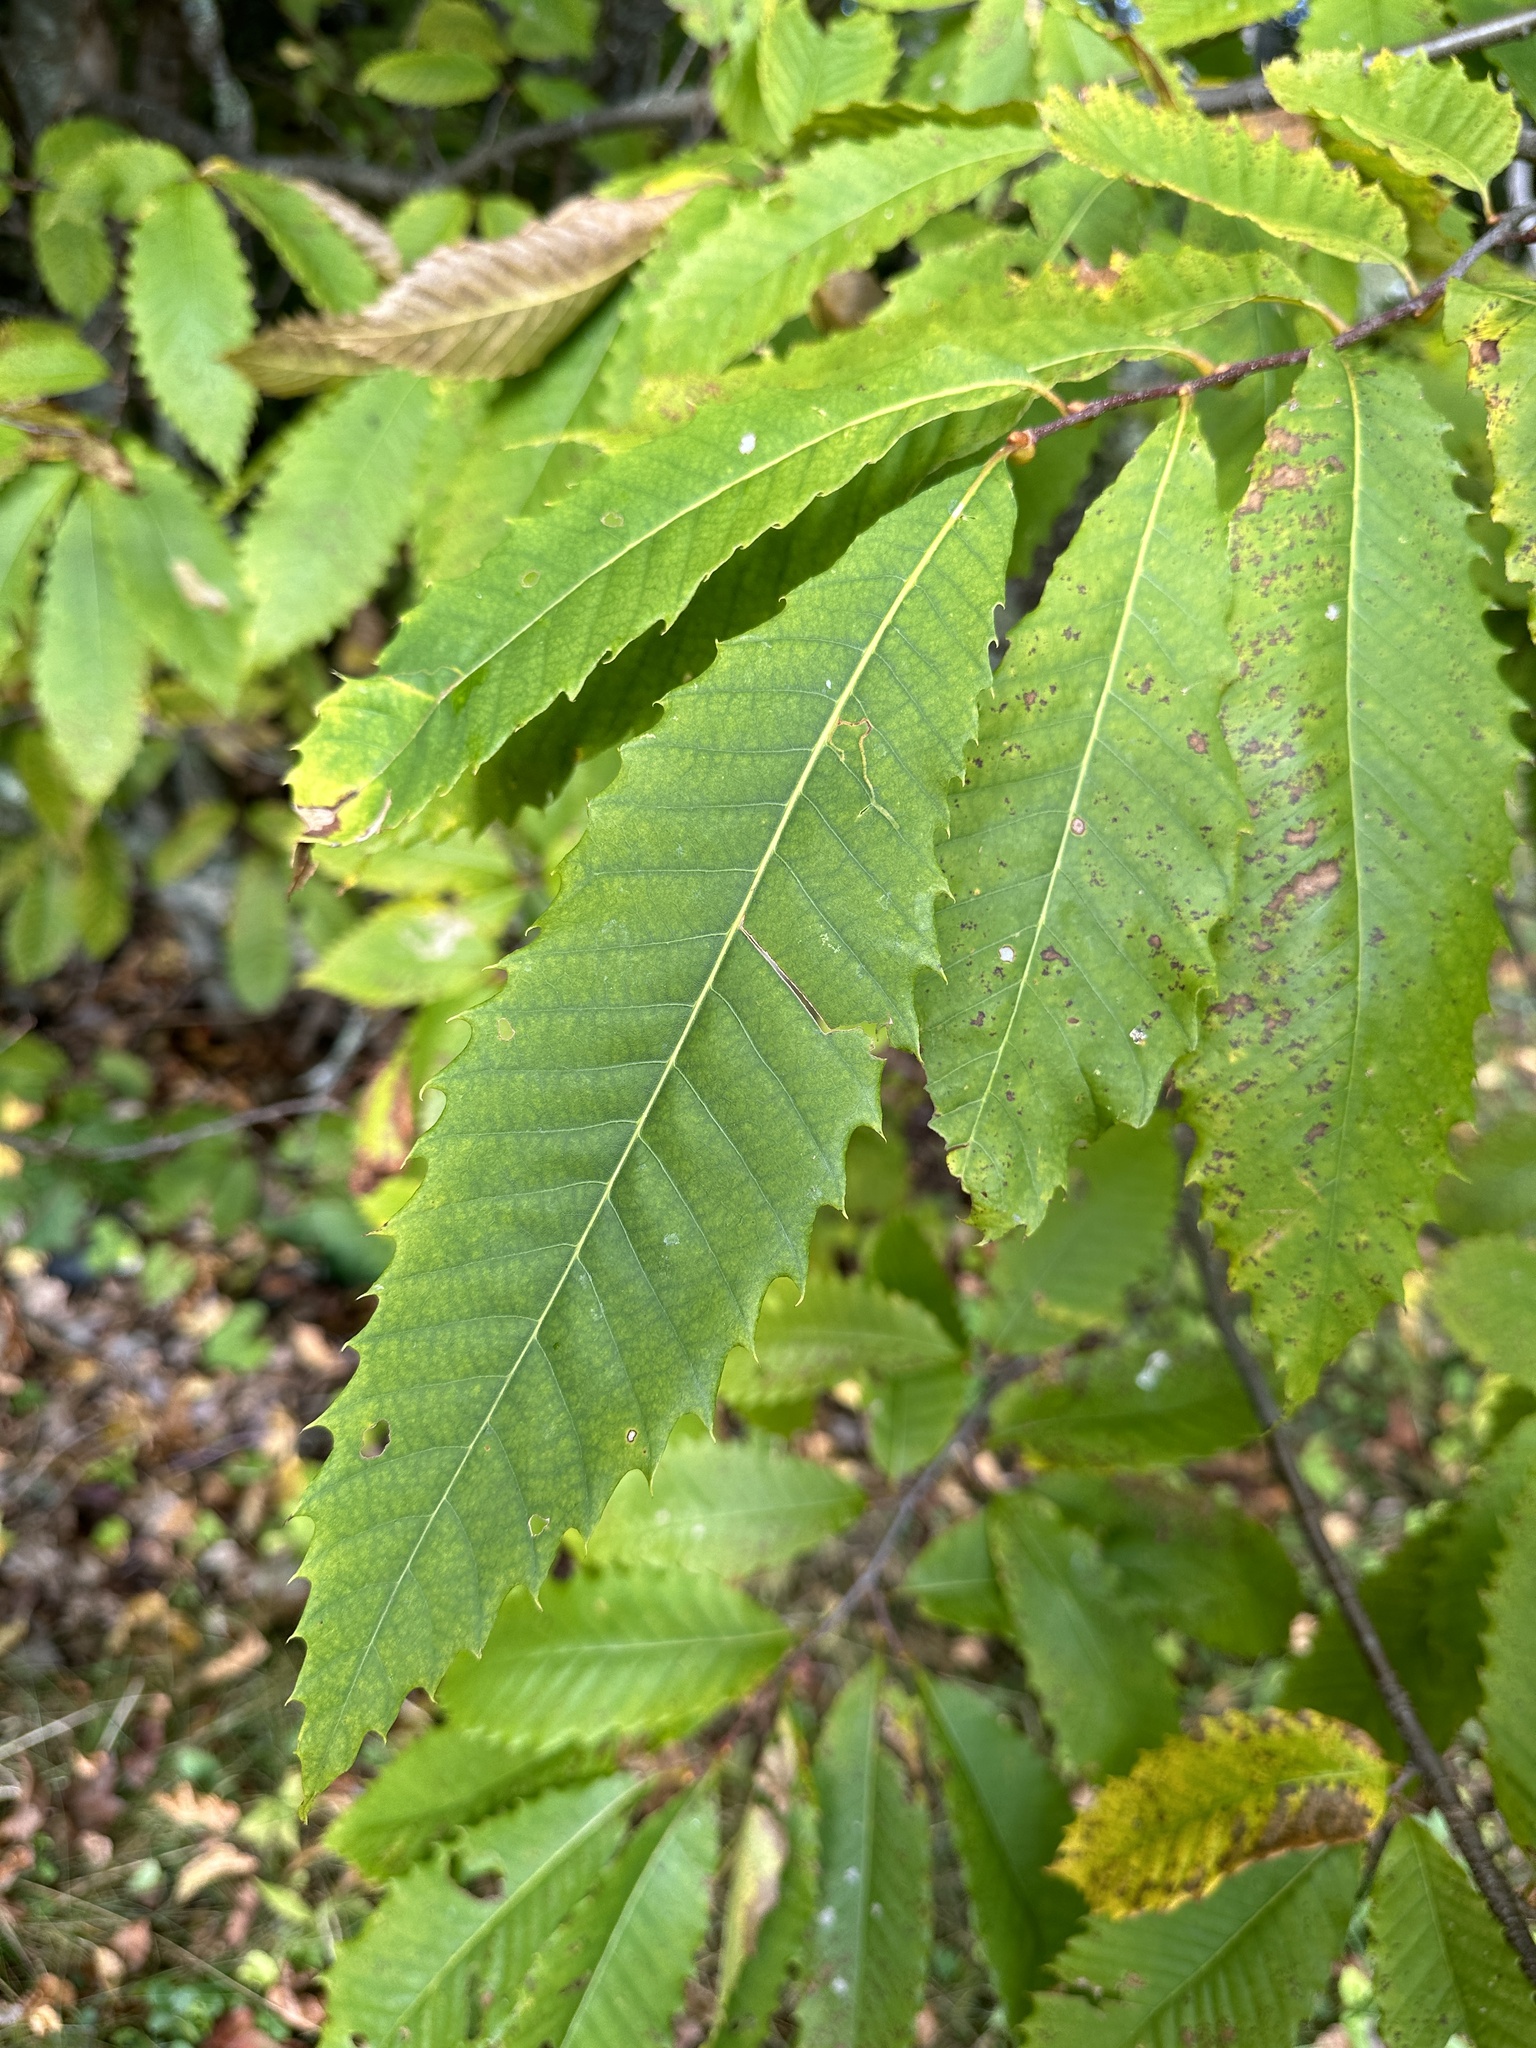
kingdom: Plantae
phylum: Tracheophyta
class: Magnoliopsida
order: Fagales
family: Fagaceae
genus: Castanea
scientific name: Castanea dentata
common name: American chestnut
